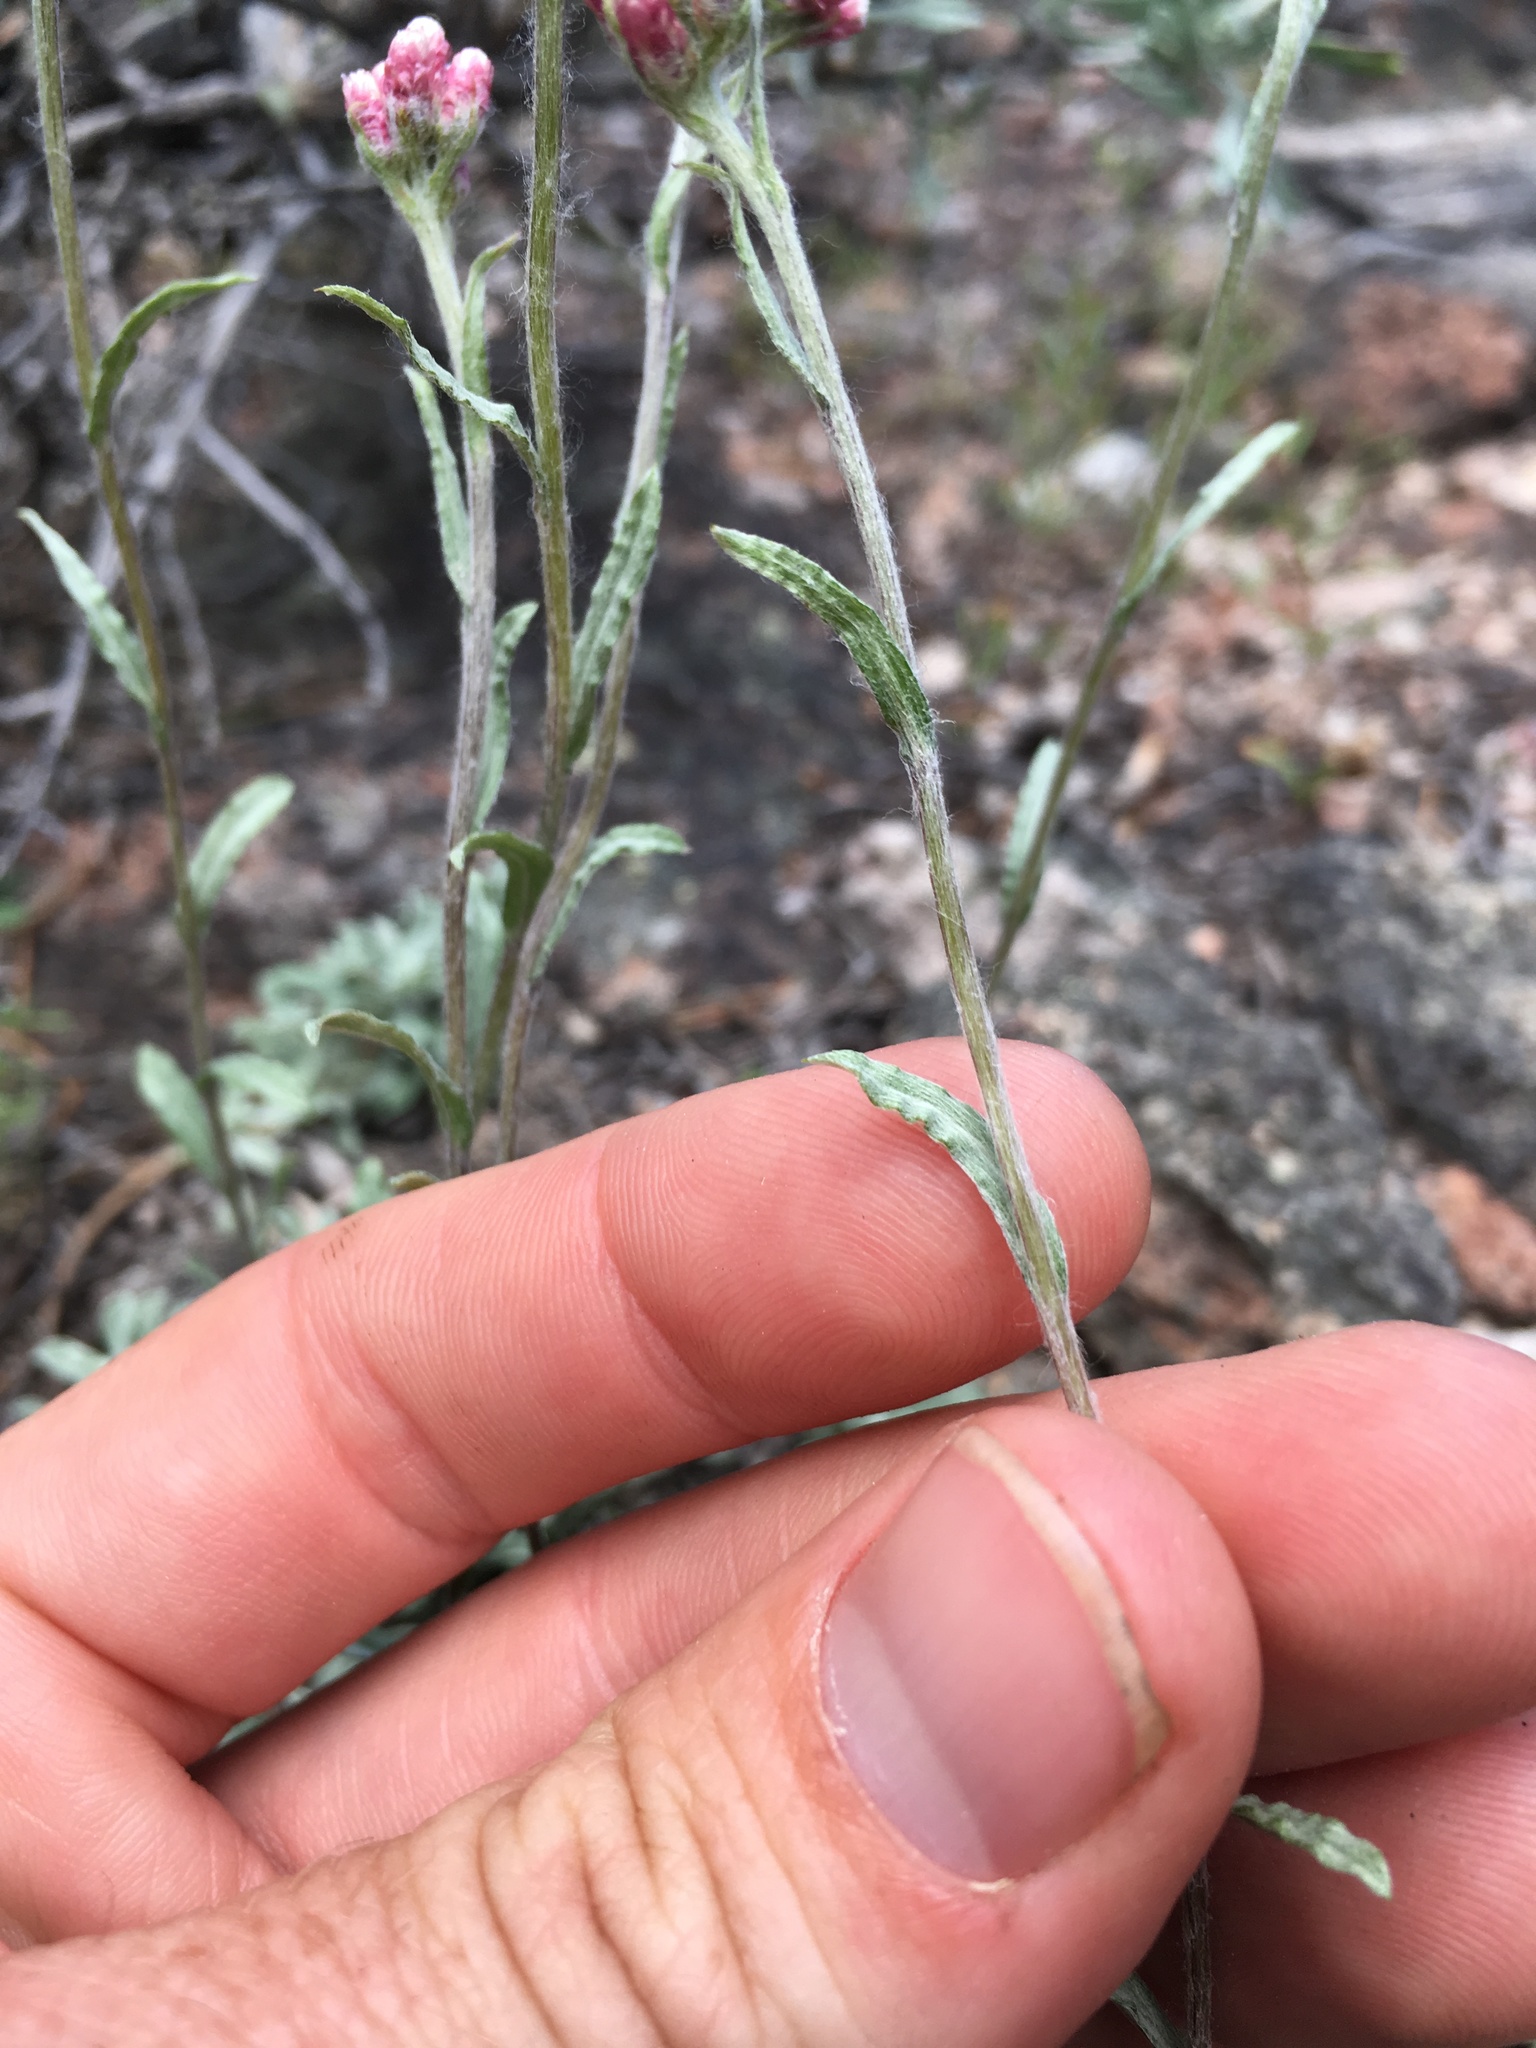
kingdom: Plantae
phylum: Tracheophyta
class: Magnoliopsida
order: Asterales
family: Asteraceae
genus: Antennaria
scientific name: Antennaria rosea
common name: Rosy pussytoes
